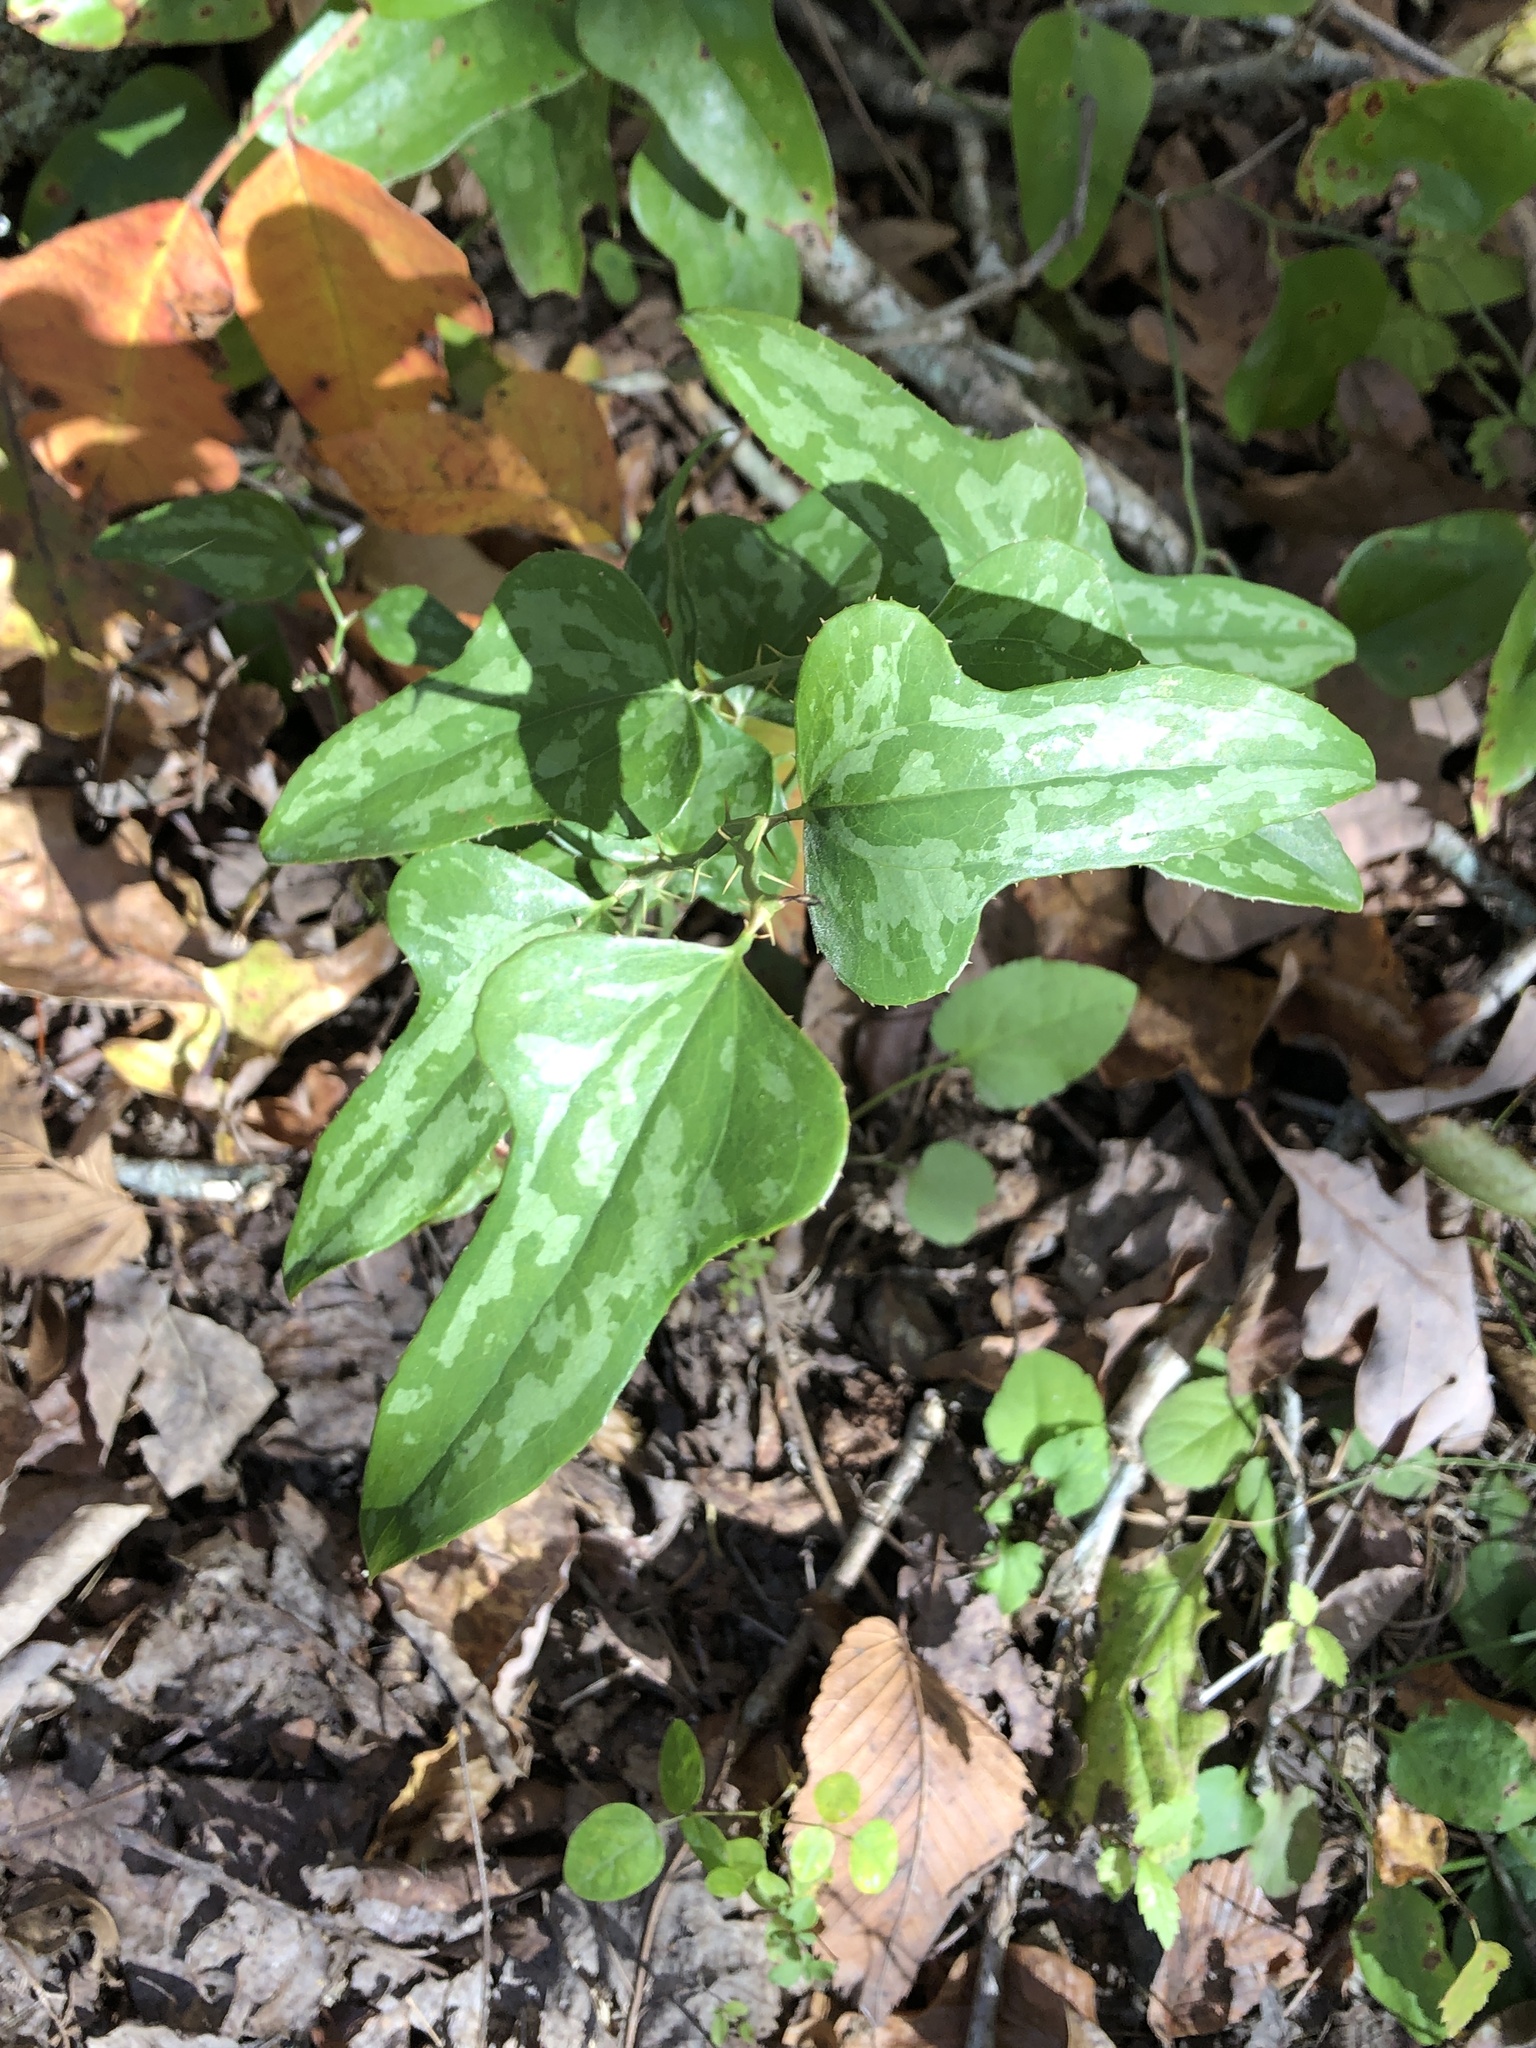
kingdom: Plantae
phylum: Tracheophyta
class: Liliopsida
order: Liliales
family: Smilacaceae
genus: Smilax
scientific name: Smilax bona-nox
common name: Catbrier
